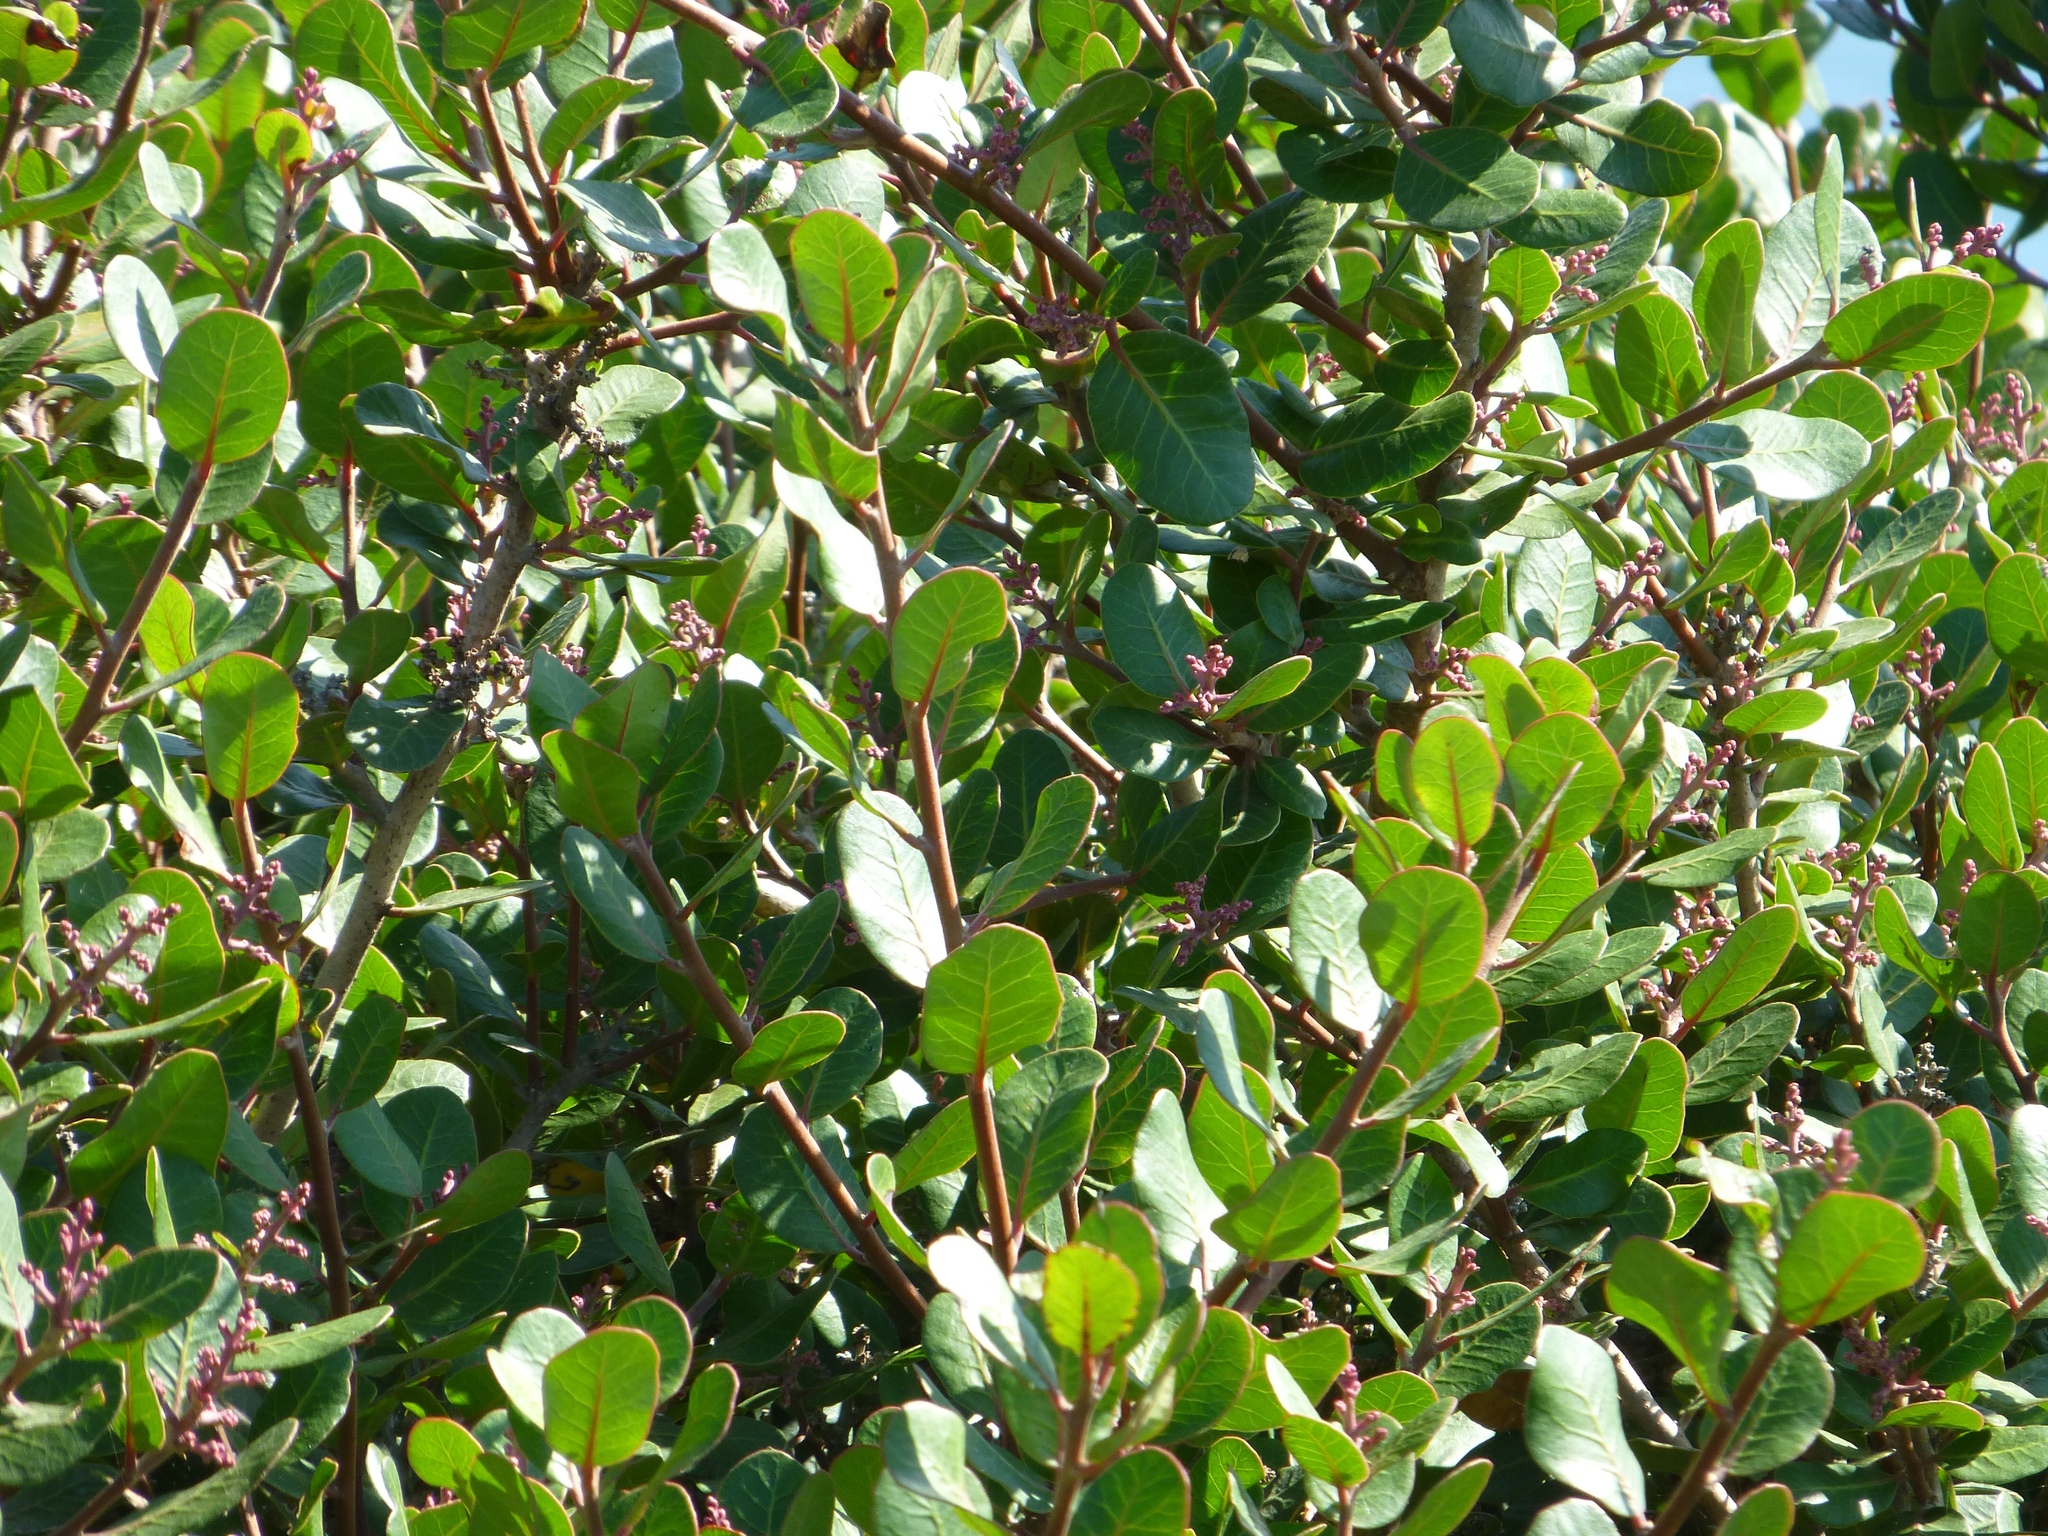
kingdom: Plantae
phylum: Tracheophyta
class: Magnoliopsida
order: Sapindales
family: Anacardiaceae
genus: Rhus
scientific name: Rhus integrifolia
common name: Lemonade sumac
